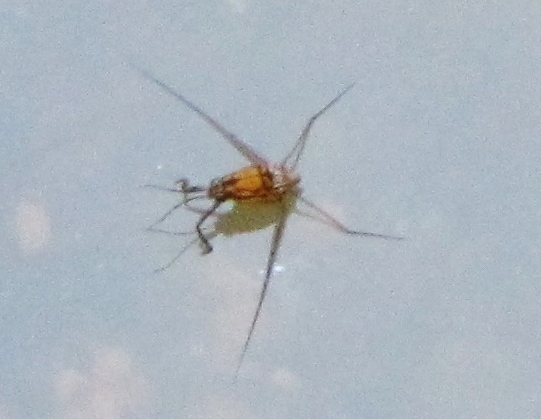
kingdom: Animalia
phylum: Arthropoda
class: Insecta
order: Hemiptera
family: Gerridae
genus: Trepobates
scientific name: Trepobates pictus
